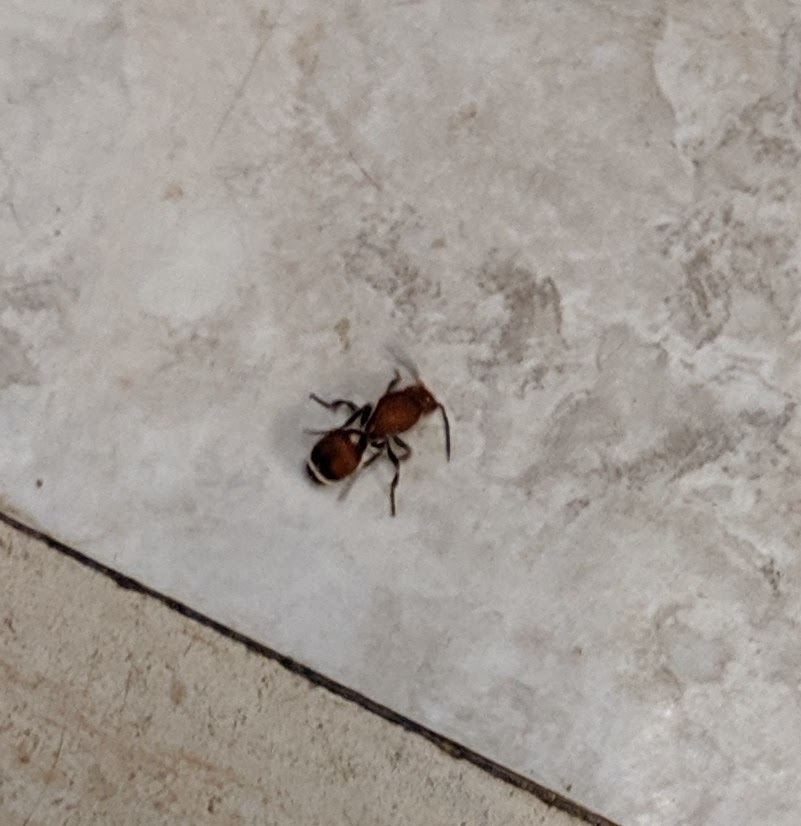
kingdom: Animalia
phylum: Arthropoda
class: Insecta
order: Hymenoptera
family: Mutillidae
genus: Sphaeropthalma
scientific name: Sphaeropthalma
